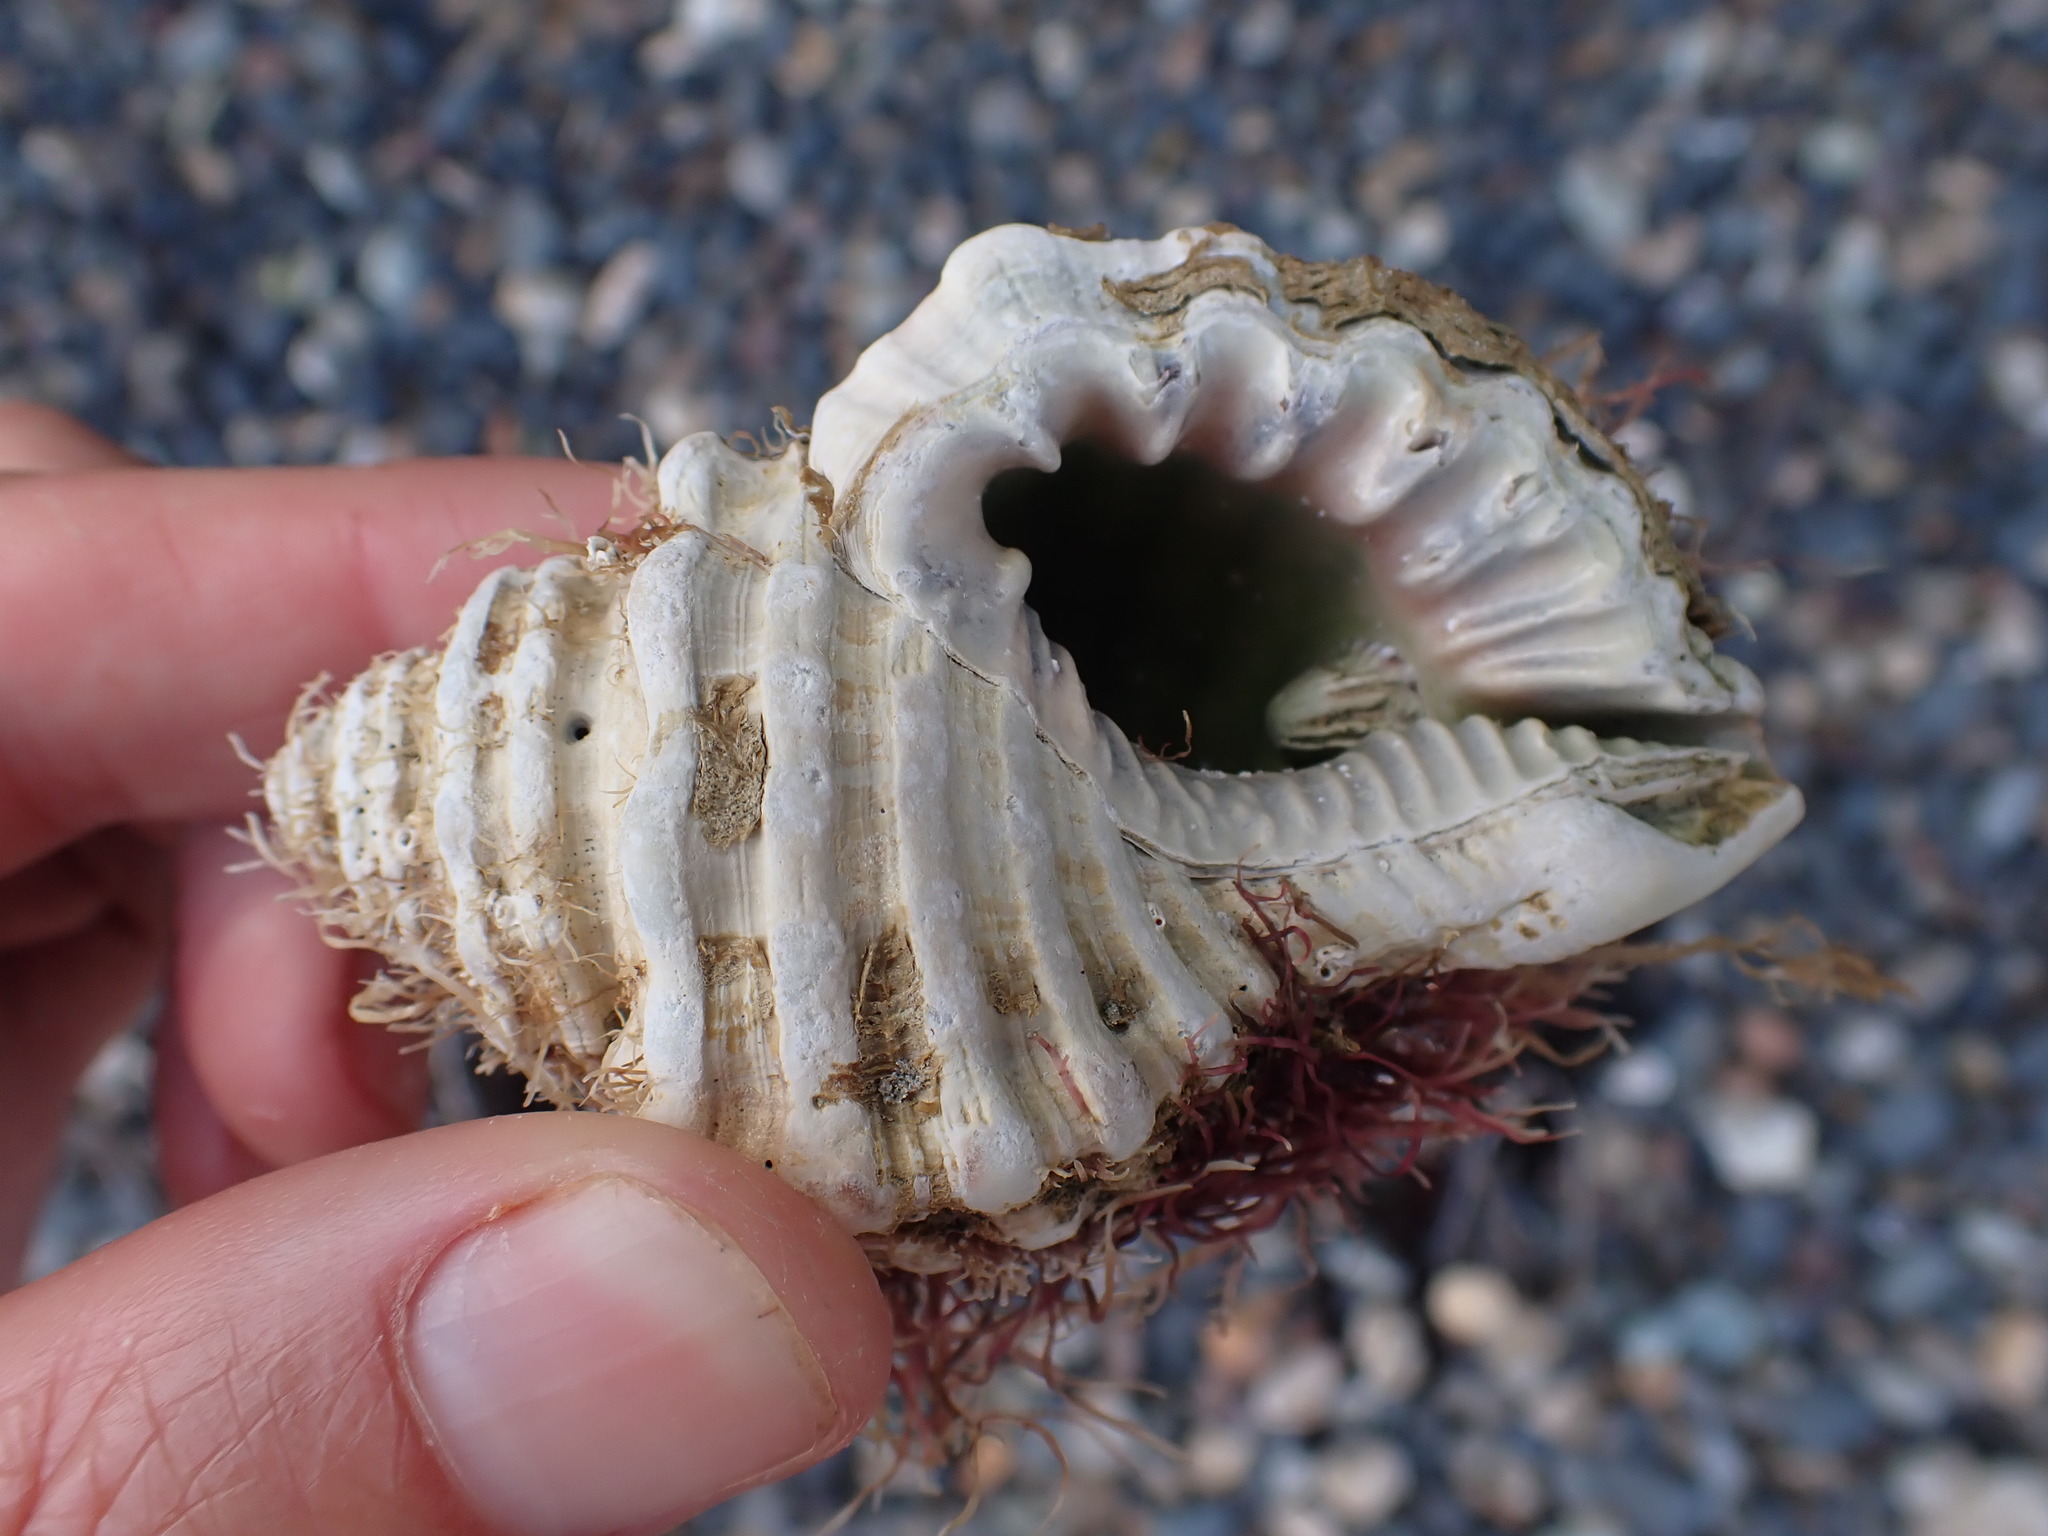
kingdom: Animalia
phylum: Mollusca
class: Gastropoda
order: Littorinimorpha
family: Cymatiidae
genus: Monoplex
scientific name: Monoplex parthenopeus
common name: Giant triton
